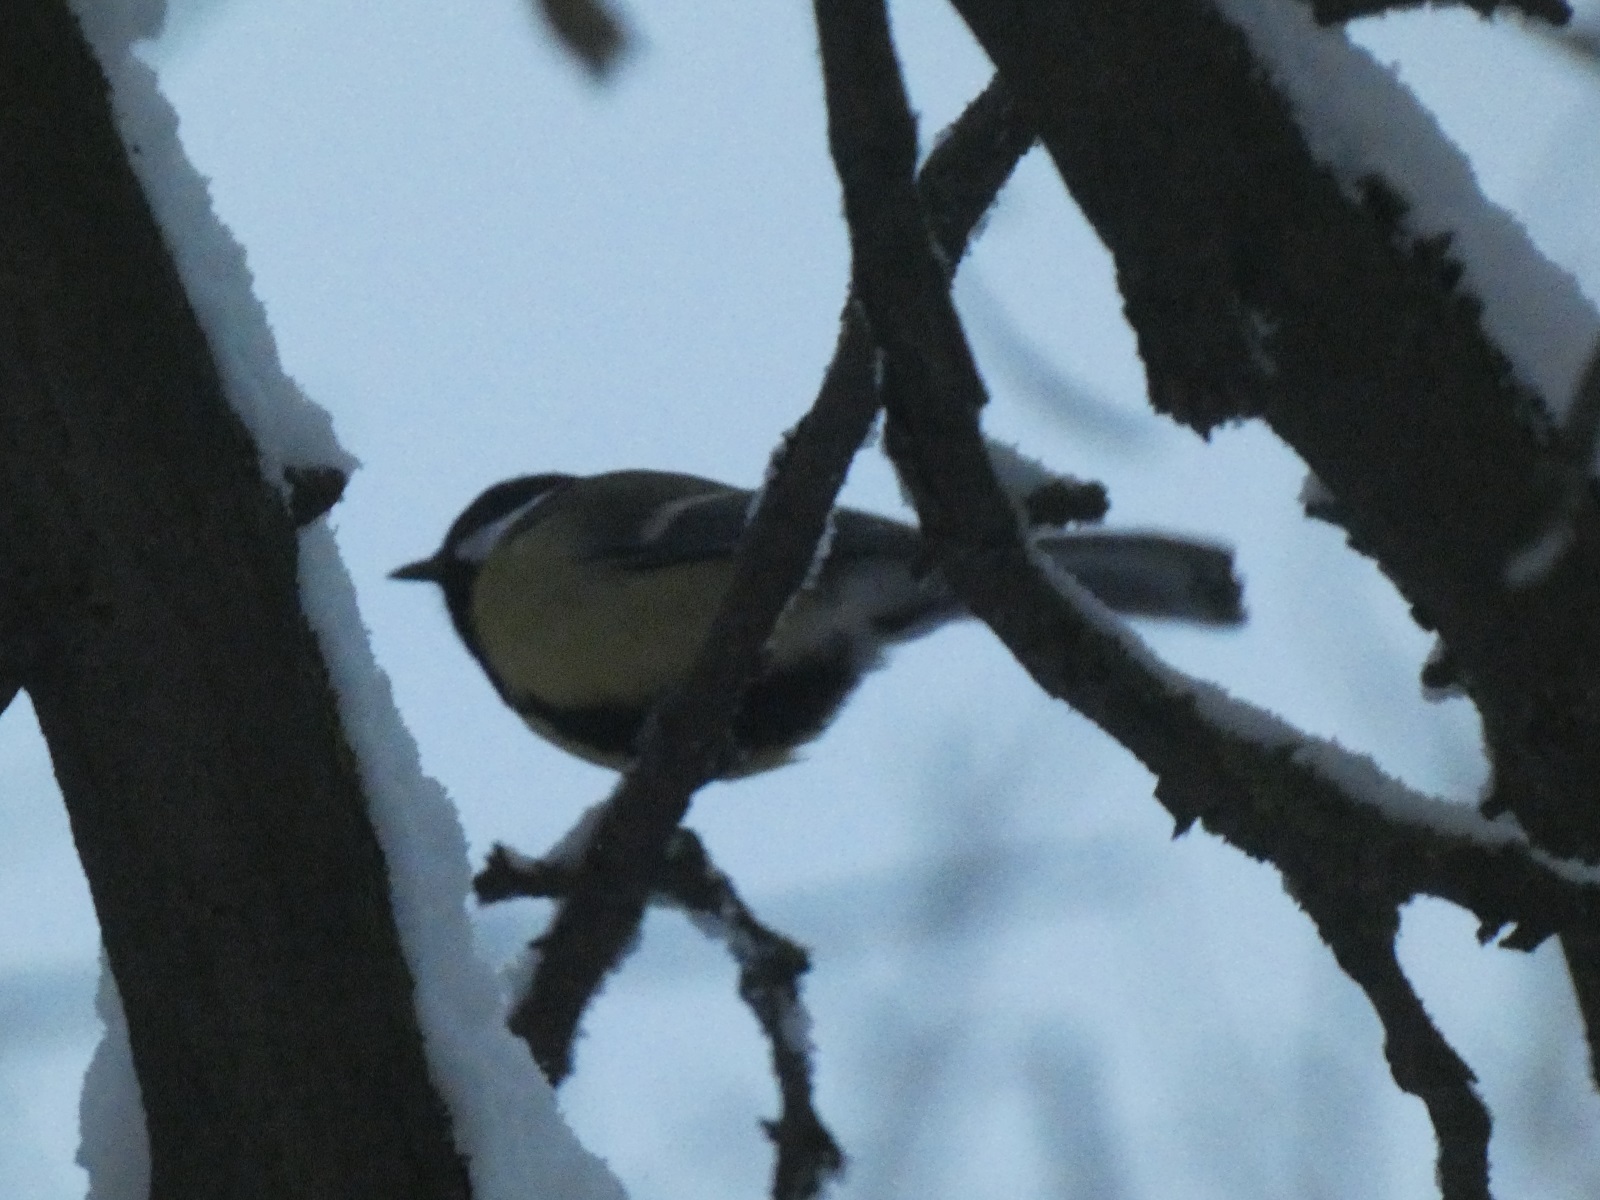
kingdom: Animalia
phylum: Chordata
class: Aves
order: Passeriformes
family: Paridae
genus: Parus
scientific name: Parus major
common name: Great tit
